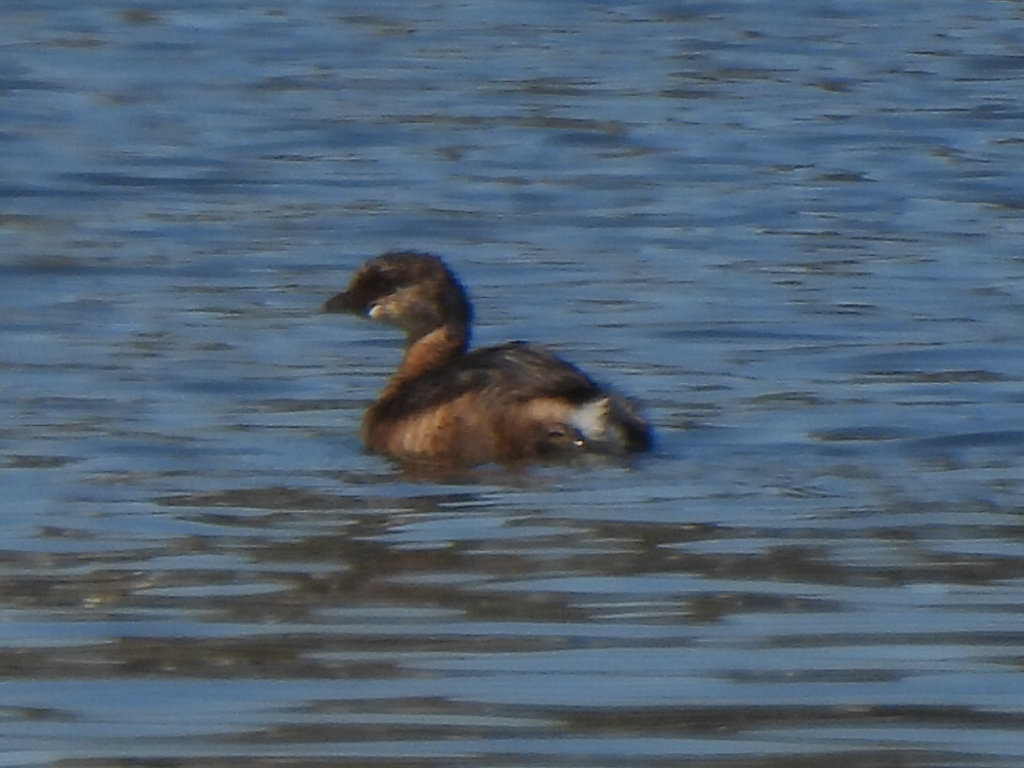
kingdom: Animalia
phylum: Chordata
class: Aves
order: Podicipediformes
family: Podicipedidae
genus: Podilymbus
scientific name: Podilymbus podiceps
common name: Pied-billed grebe
